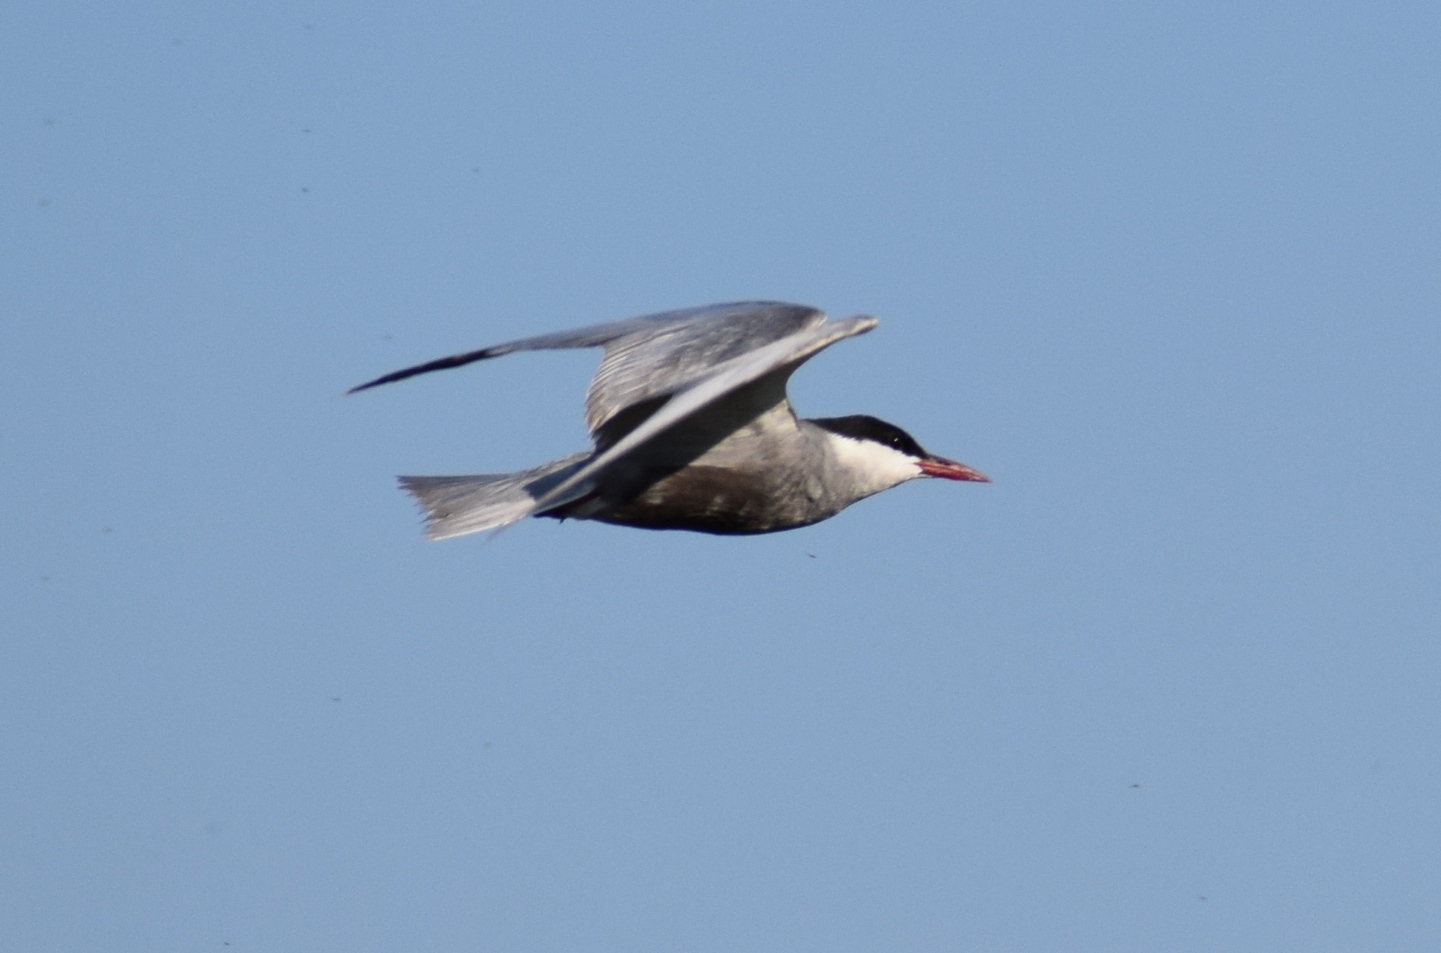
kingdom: Animalia
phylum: Chordata
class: Aves
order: Charadriiformes
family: Laridae
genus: Chlidonias
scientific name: Chlidonias hybrida
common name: Whiskered tern
